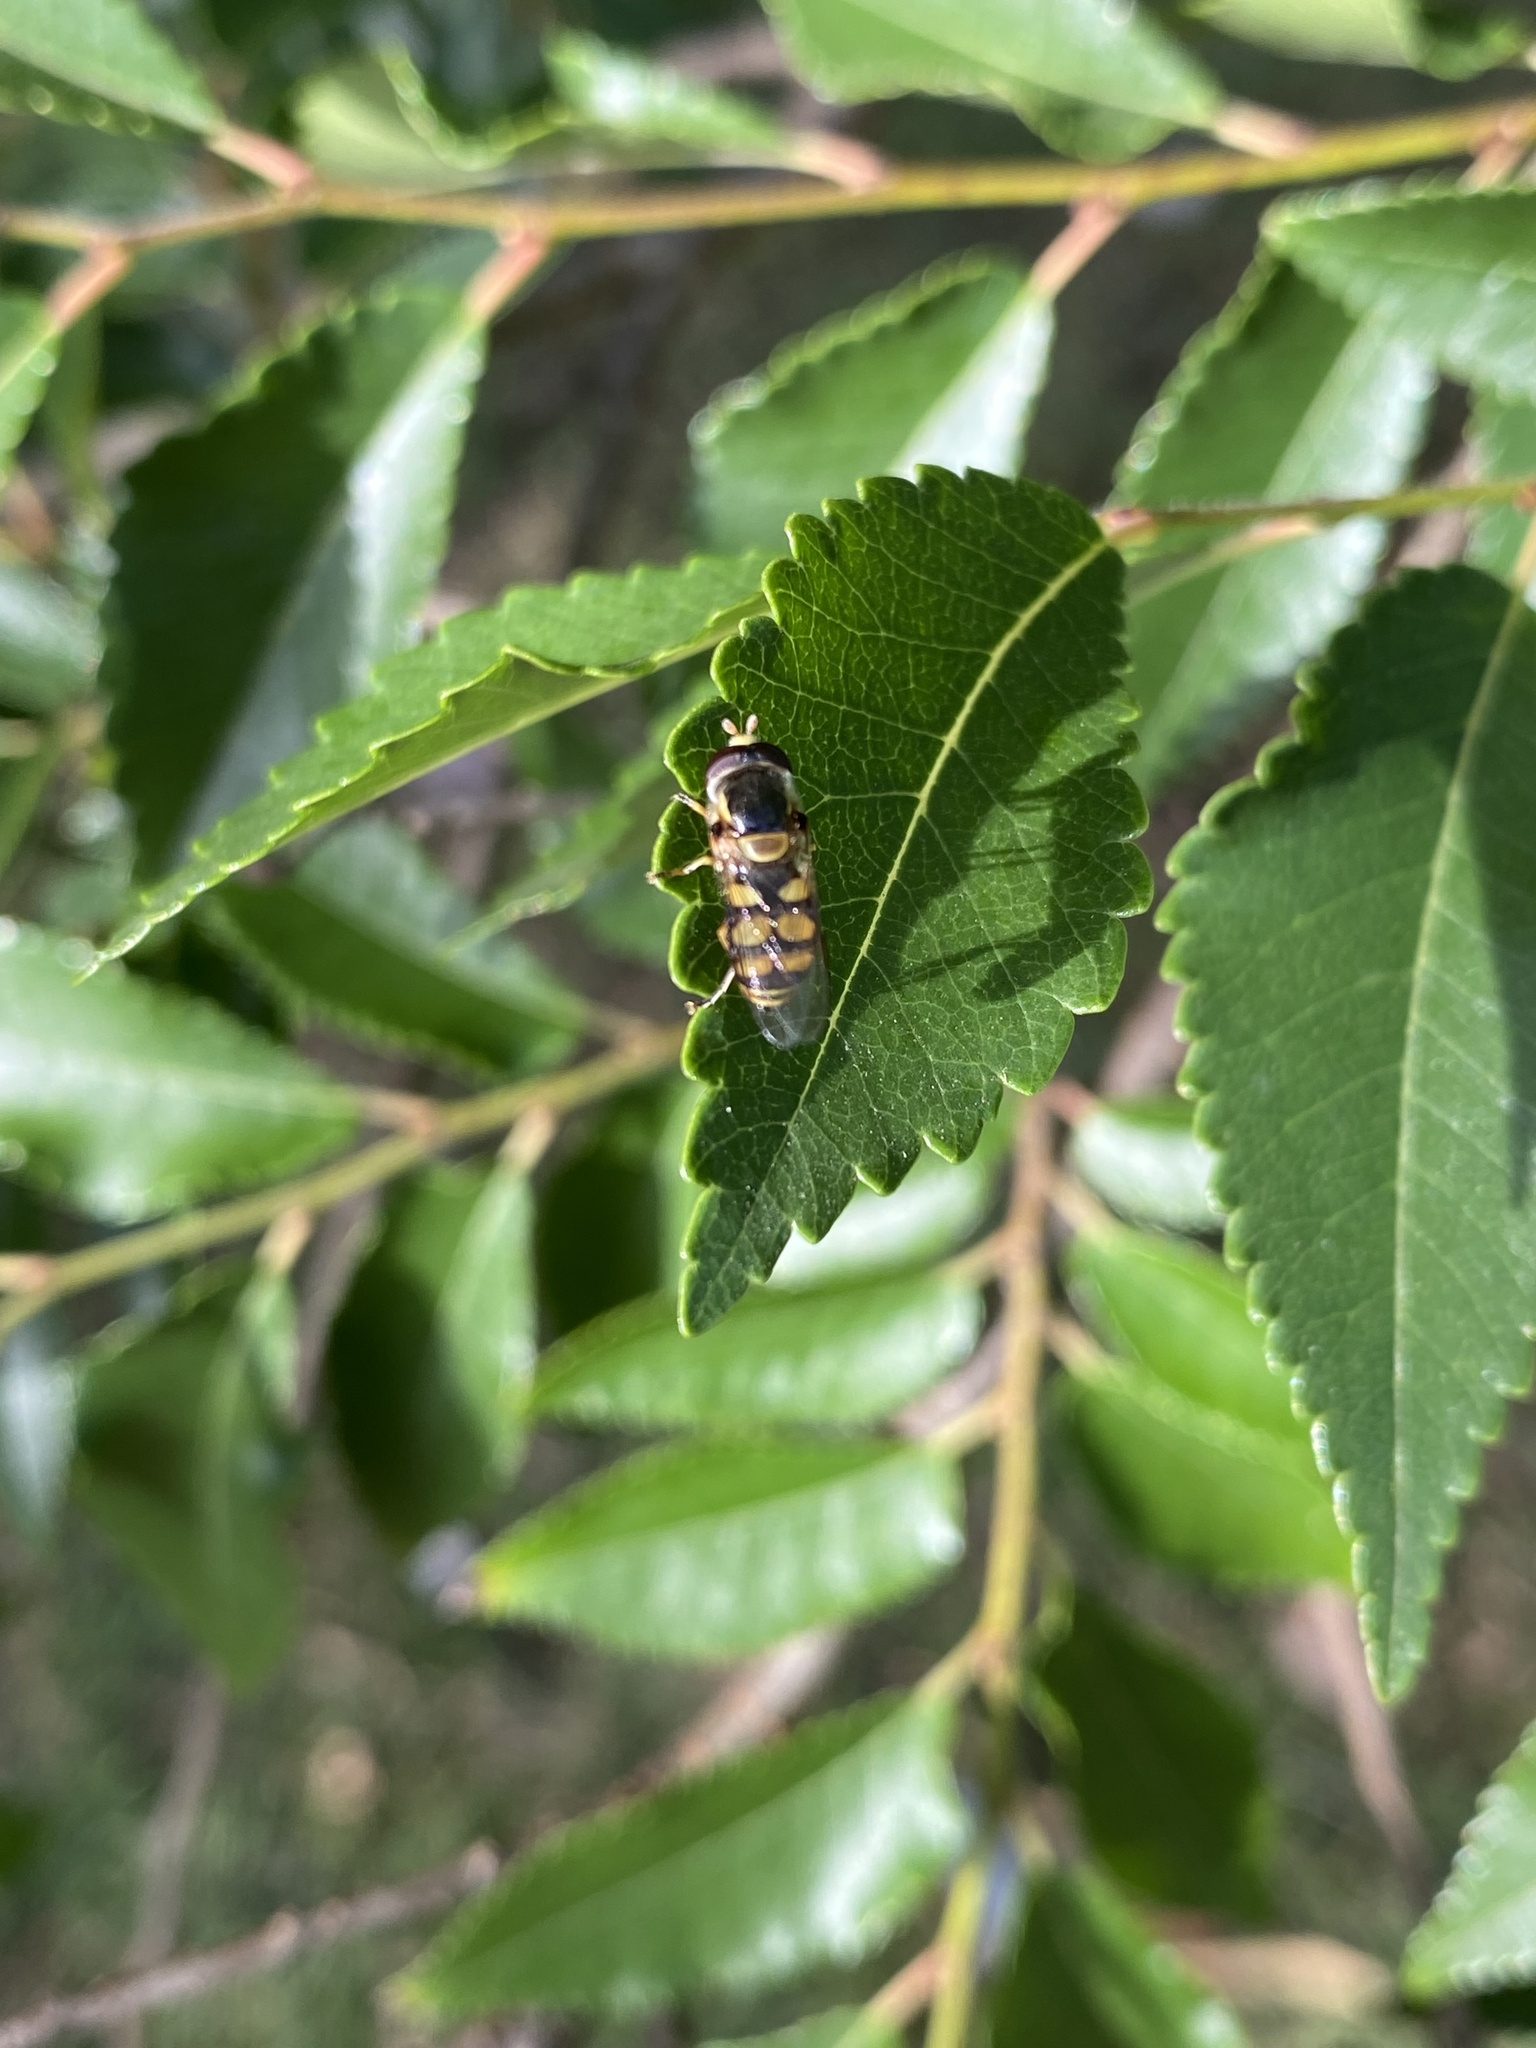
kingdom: Animalia
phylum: Arthropoda
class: Insecta
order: Diptera
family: Syrphidae
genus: Simosyrphus
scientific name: Simosyrphus grandicornis
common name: Hoverfly
